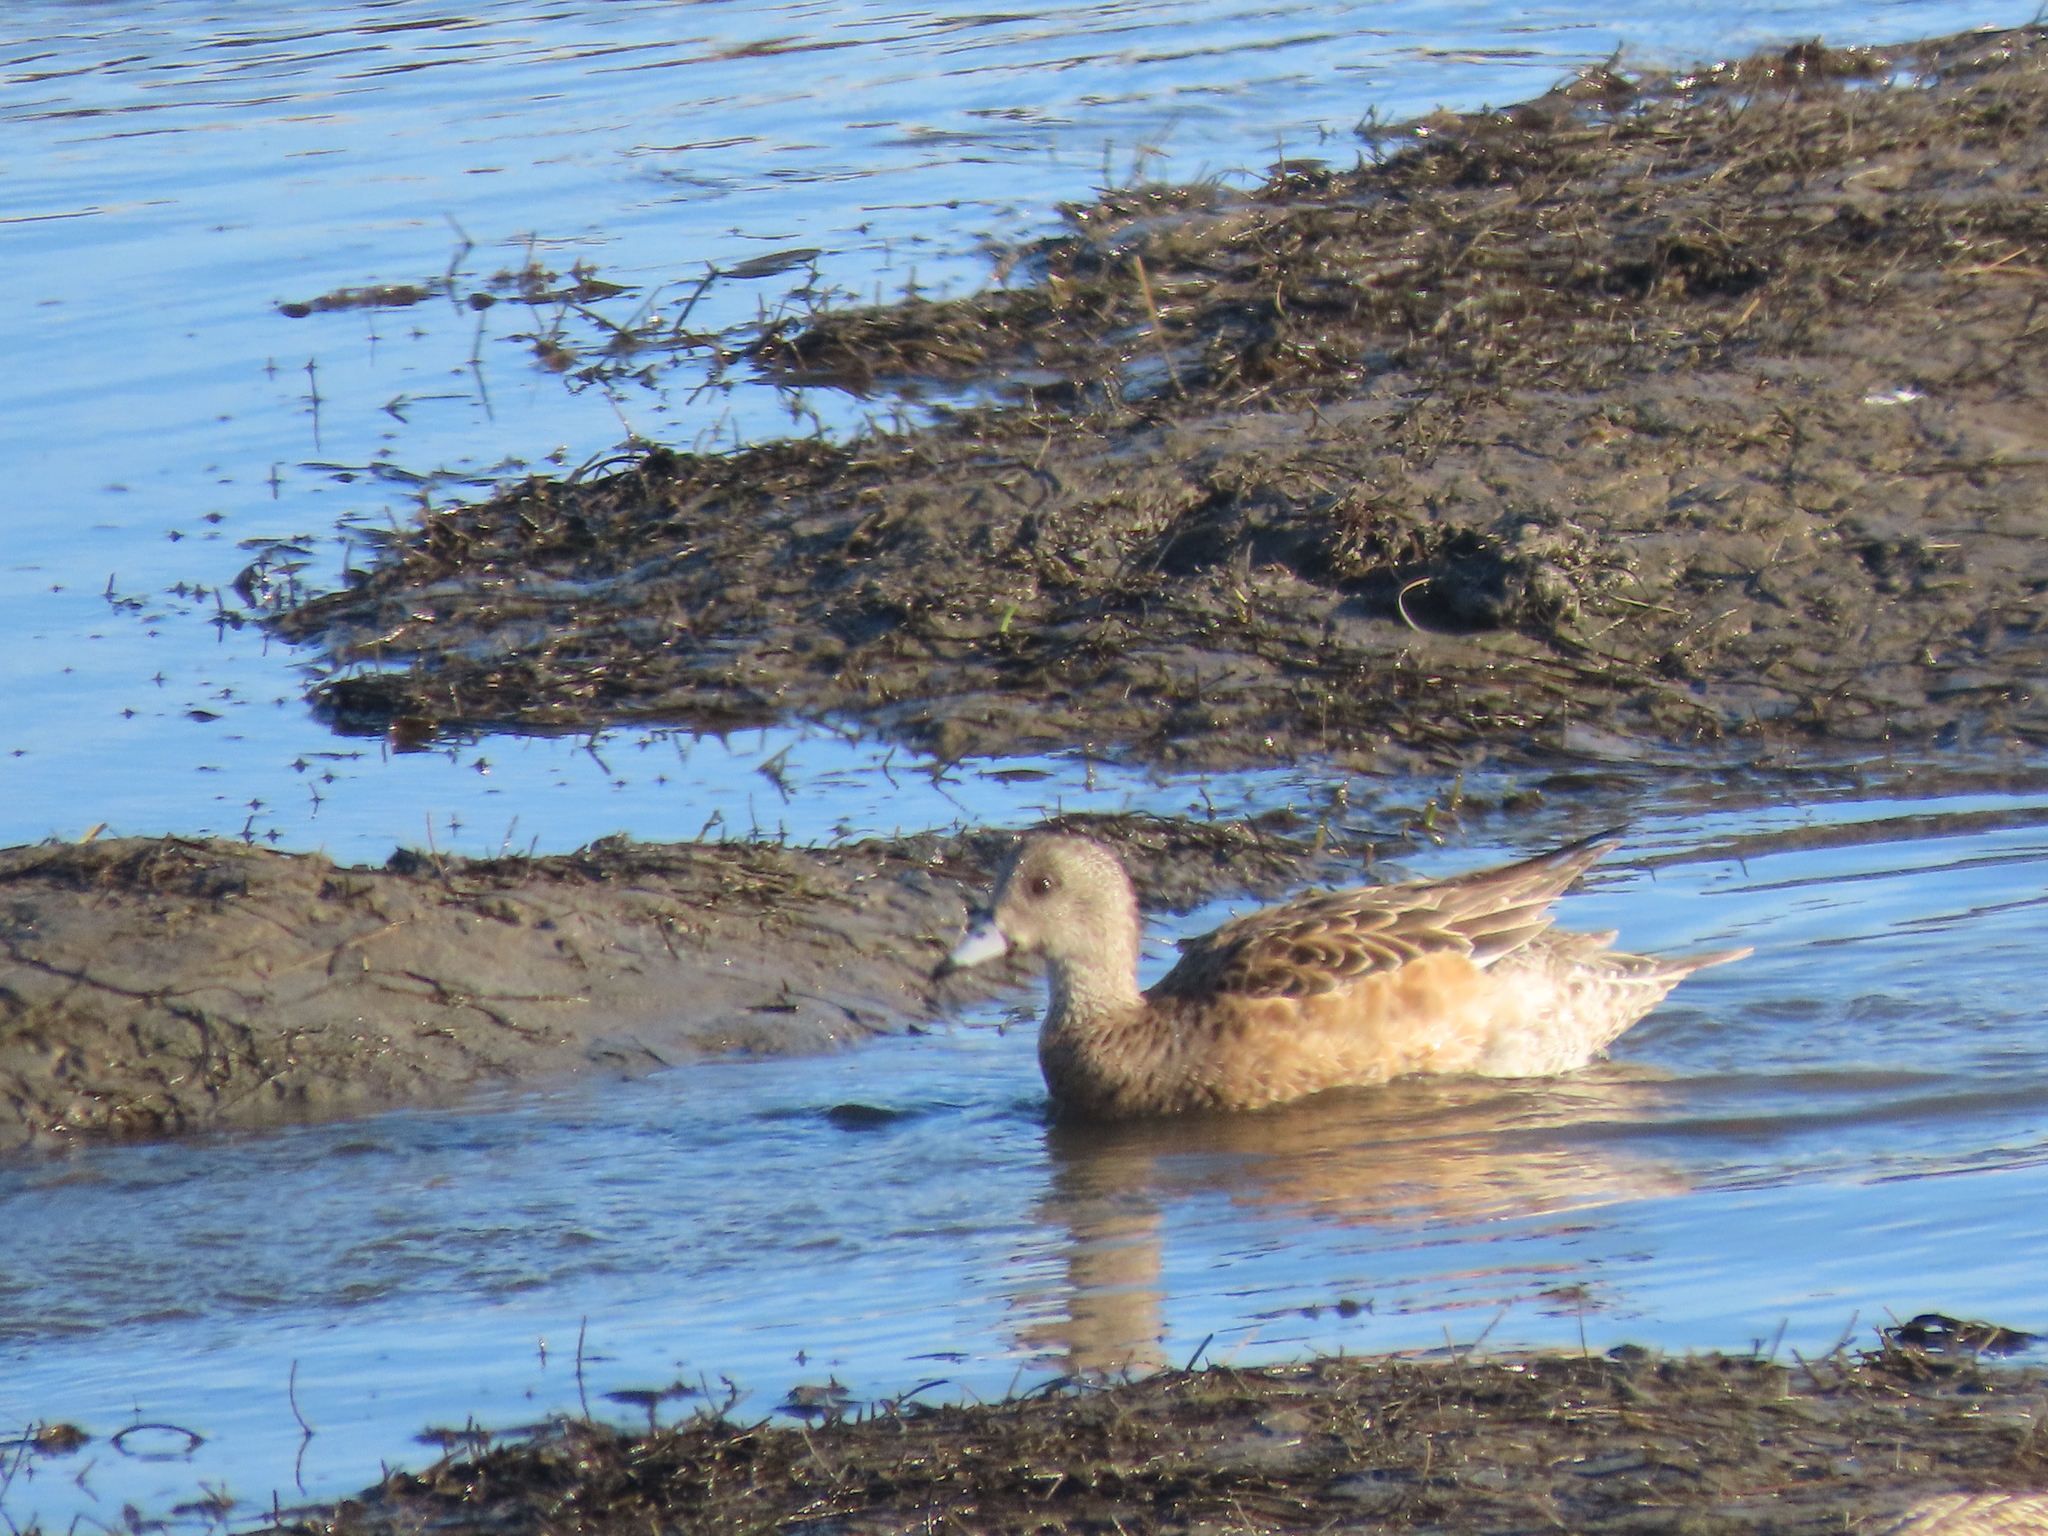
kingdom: Animalia
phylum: Chordata
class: Aves
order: Anseriformes
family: Anatidae
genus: Mareca
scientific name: Mareca americana
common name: American wigeon
